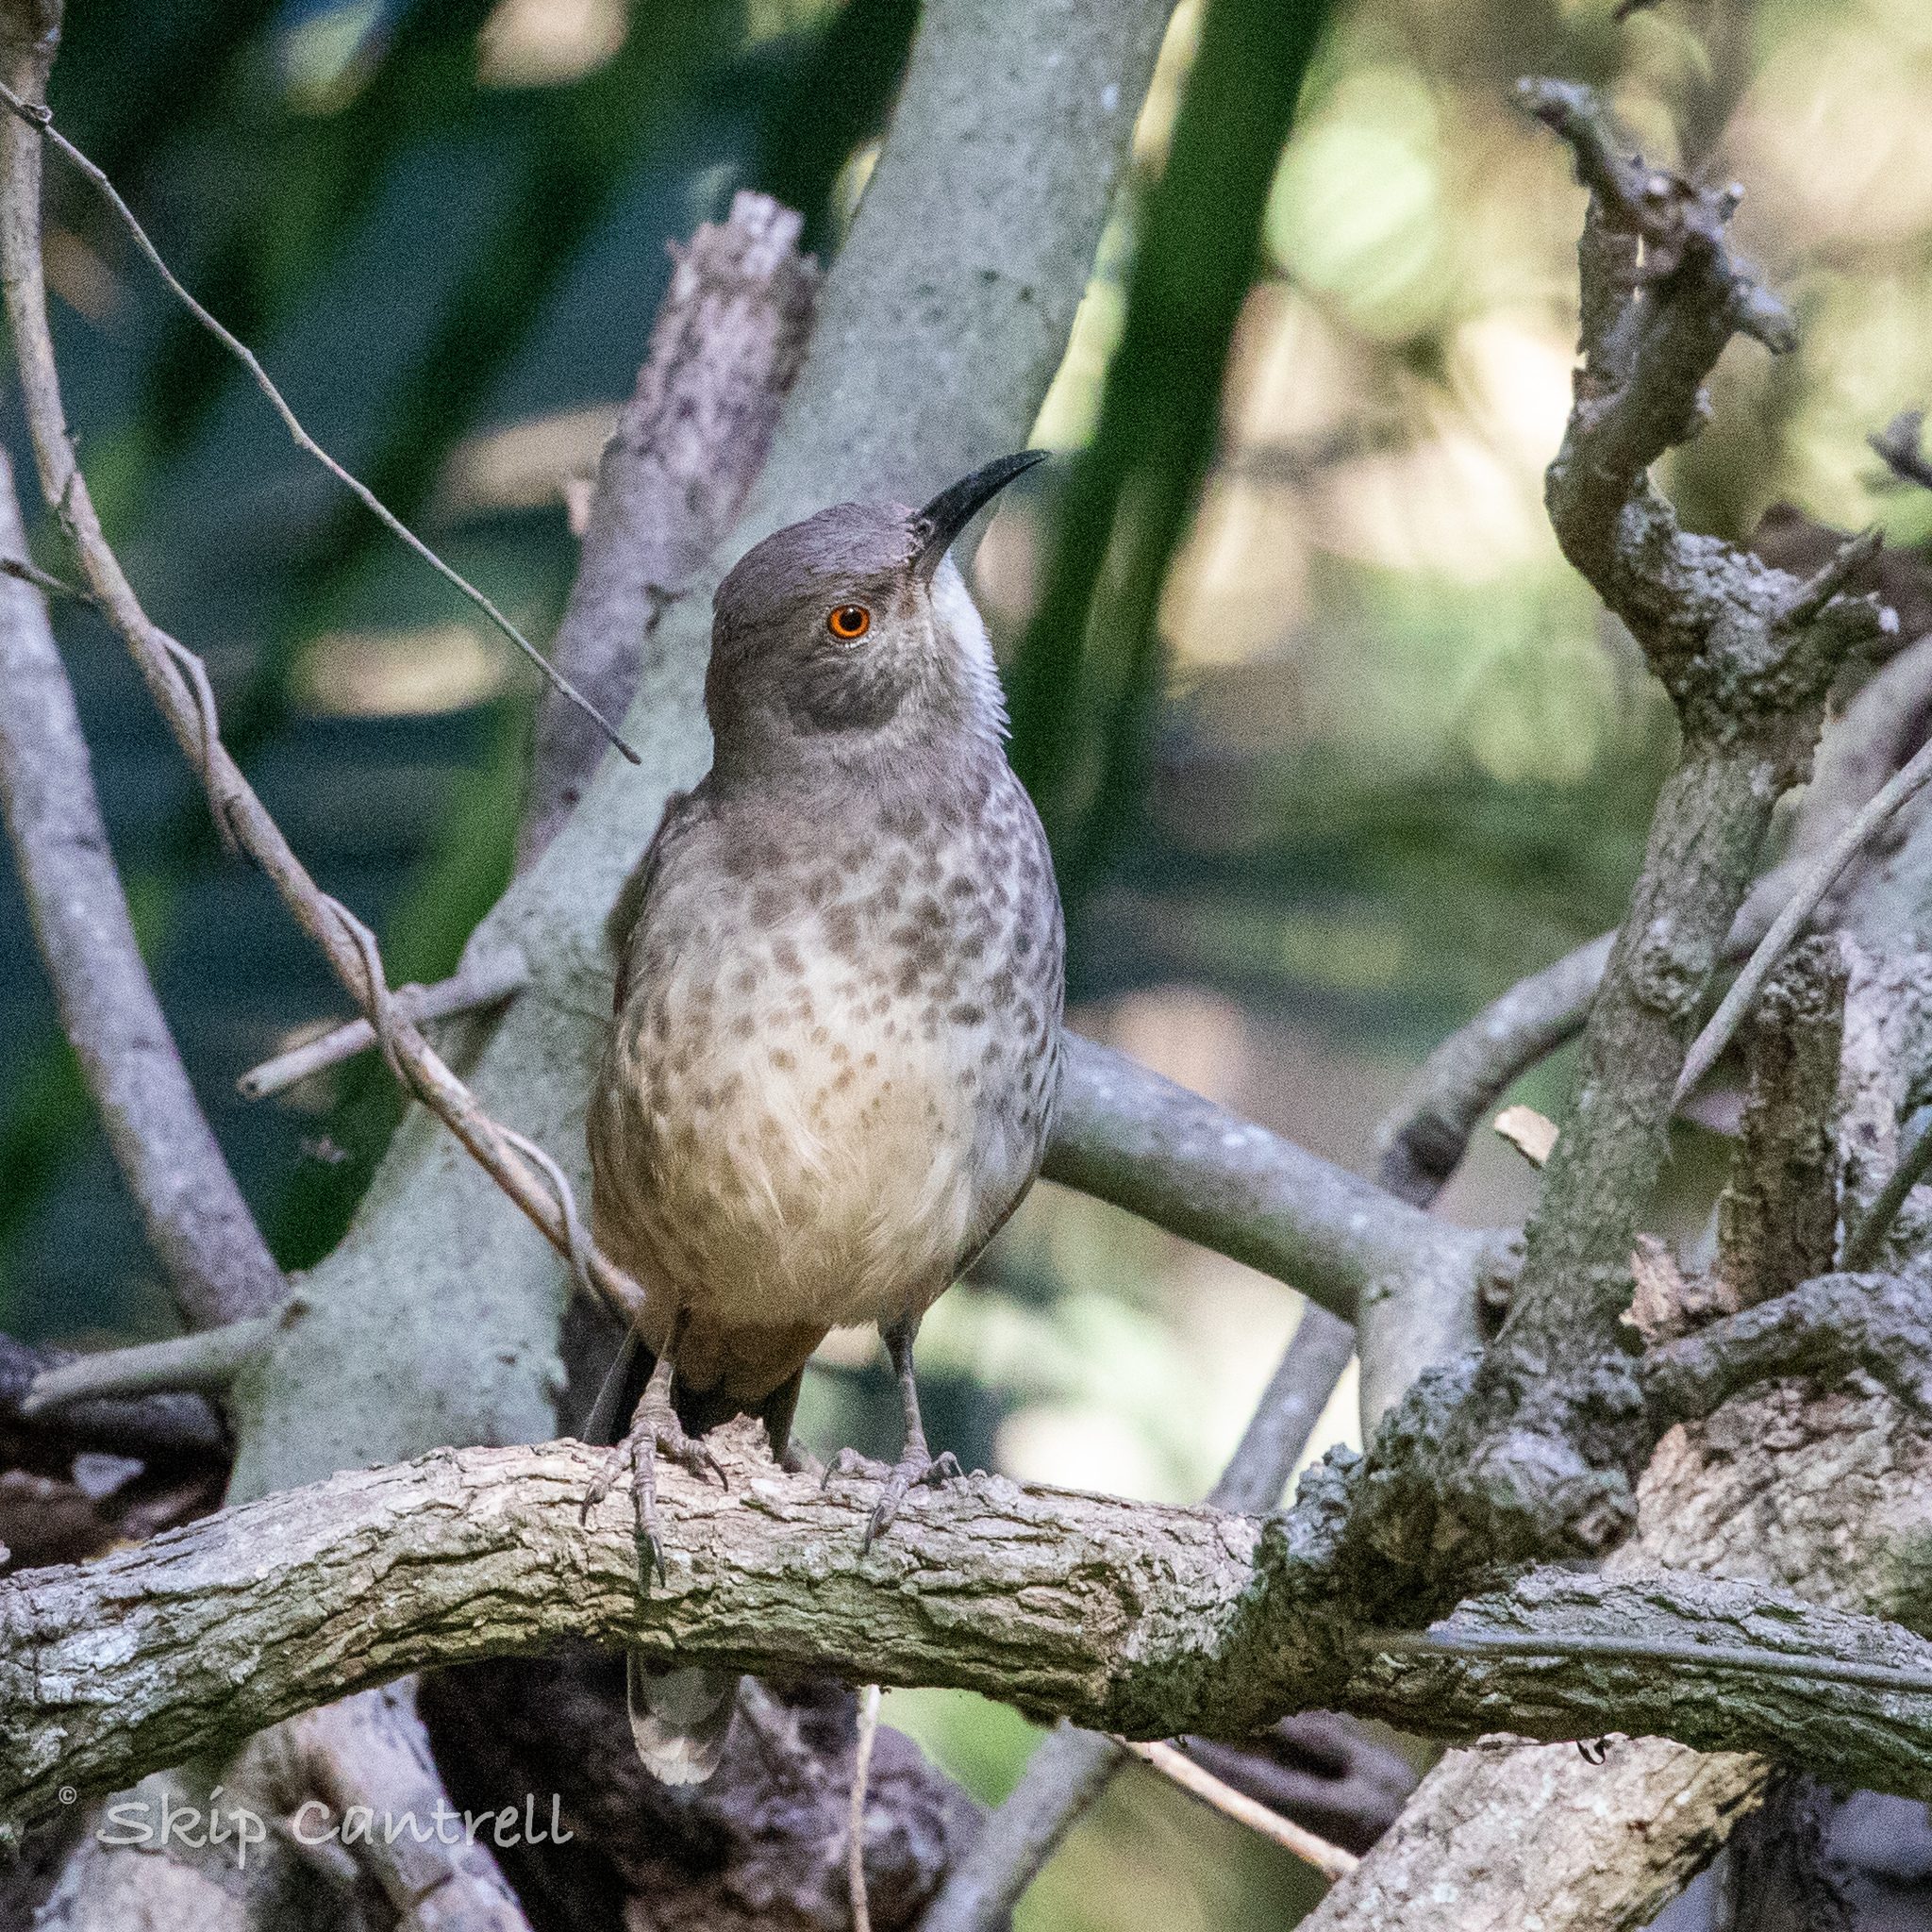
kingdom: Animalia
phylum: Chordata
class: Aves
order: Passeriformes
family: Mimidae
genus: Toxostoma
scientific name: Toxostoma curvirostre
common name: Curve-billed thrasher
